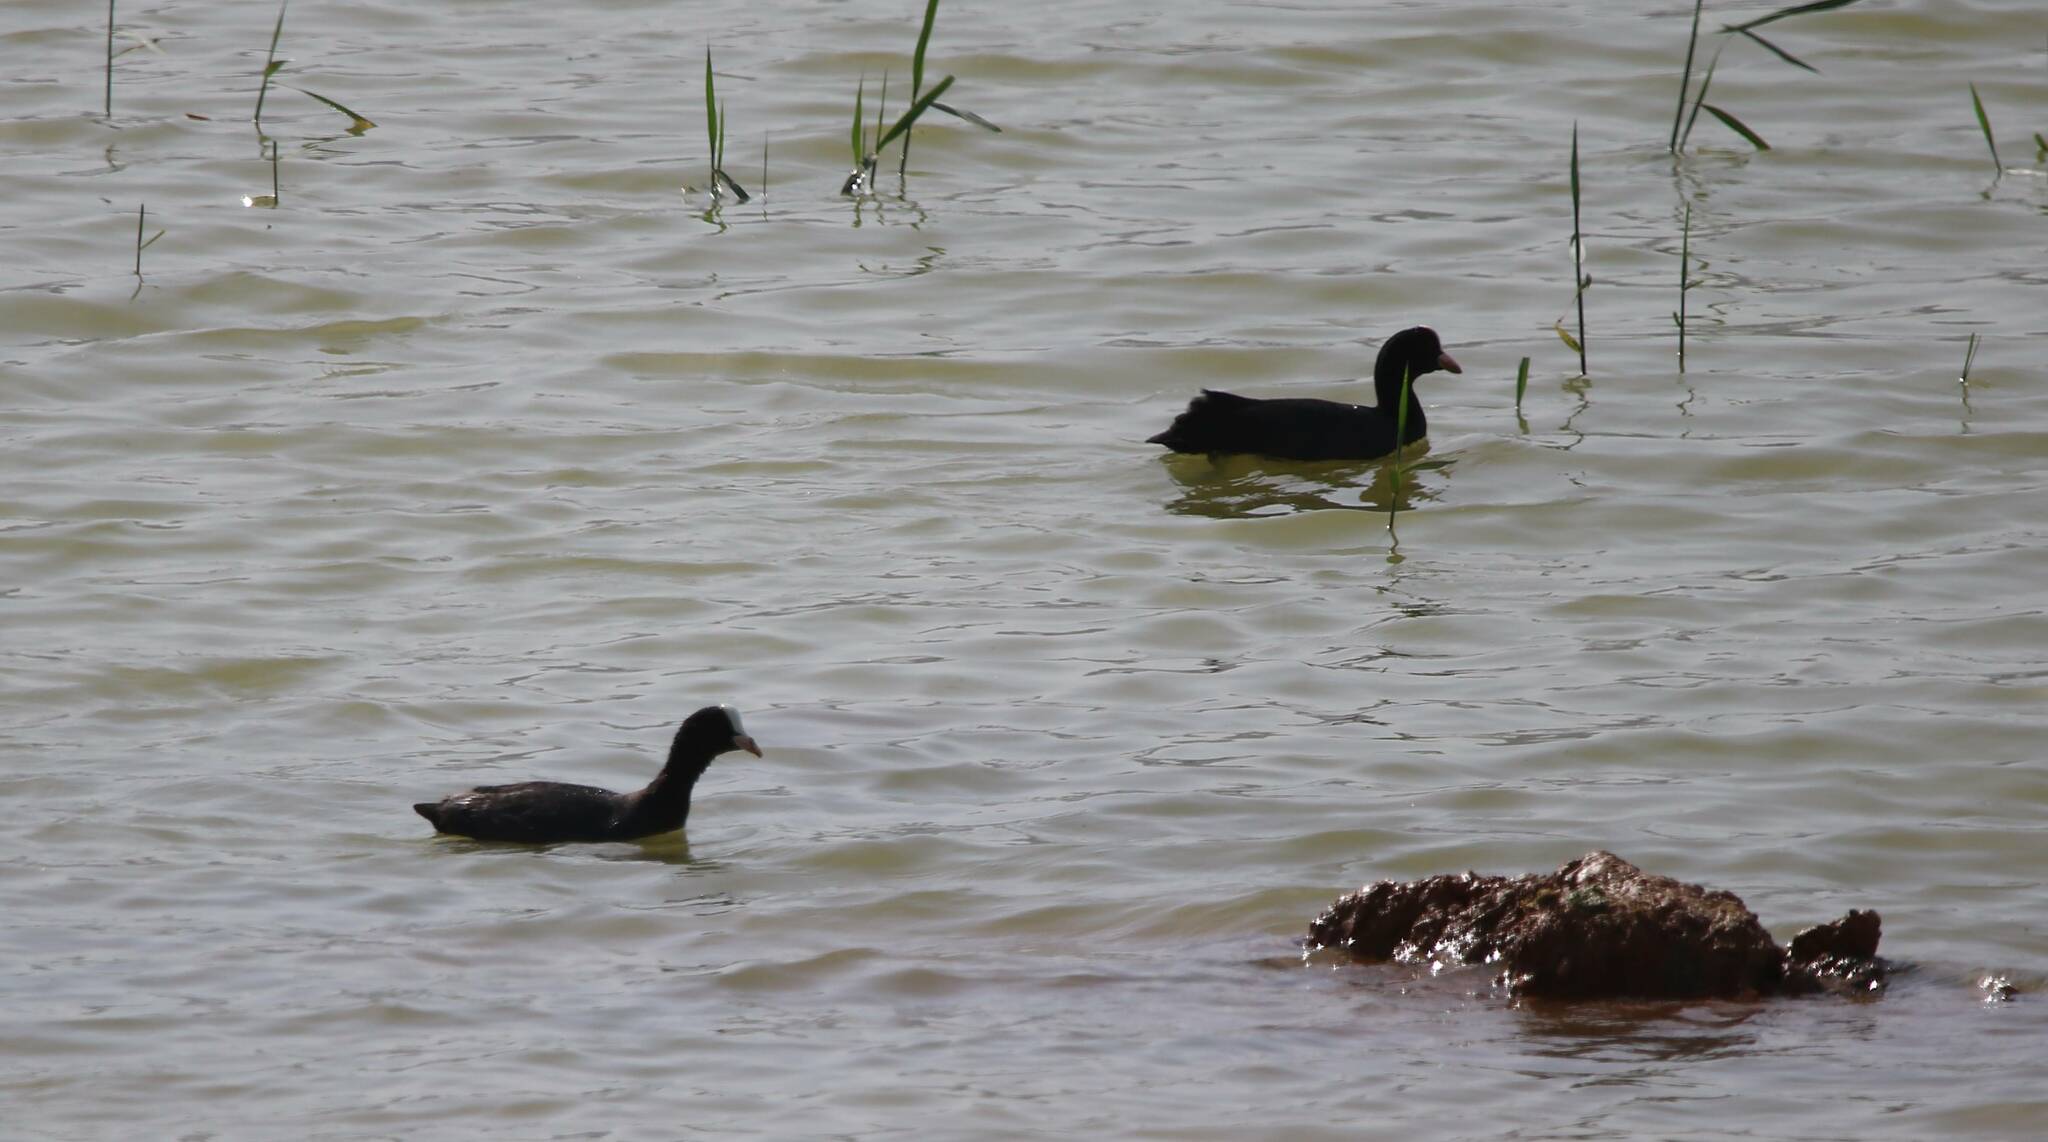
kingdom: Animalia
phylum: Chordata
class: Aves
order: Gruiformes
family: Rallidae
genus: Fulica
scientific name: Fulica atra
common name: Eurasian coot
